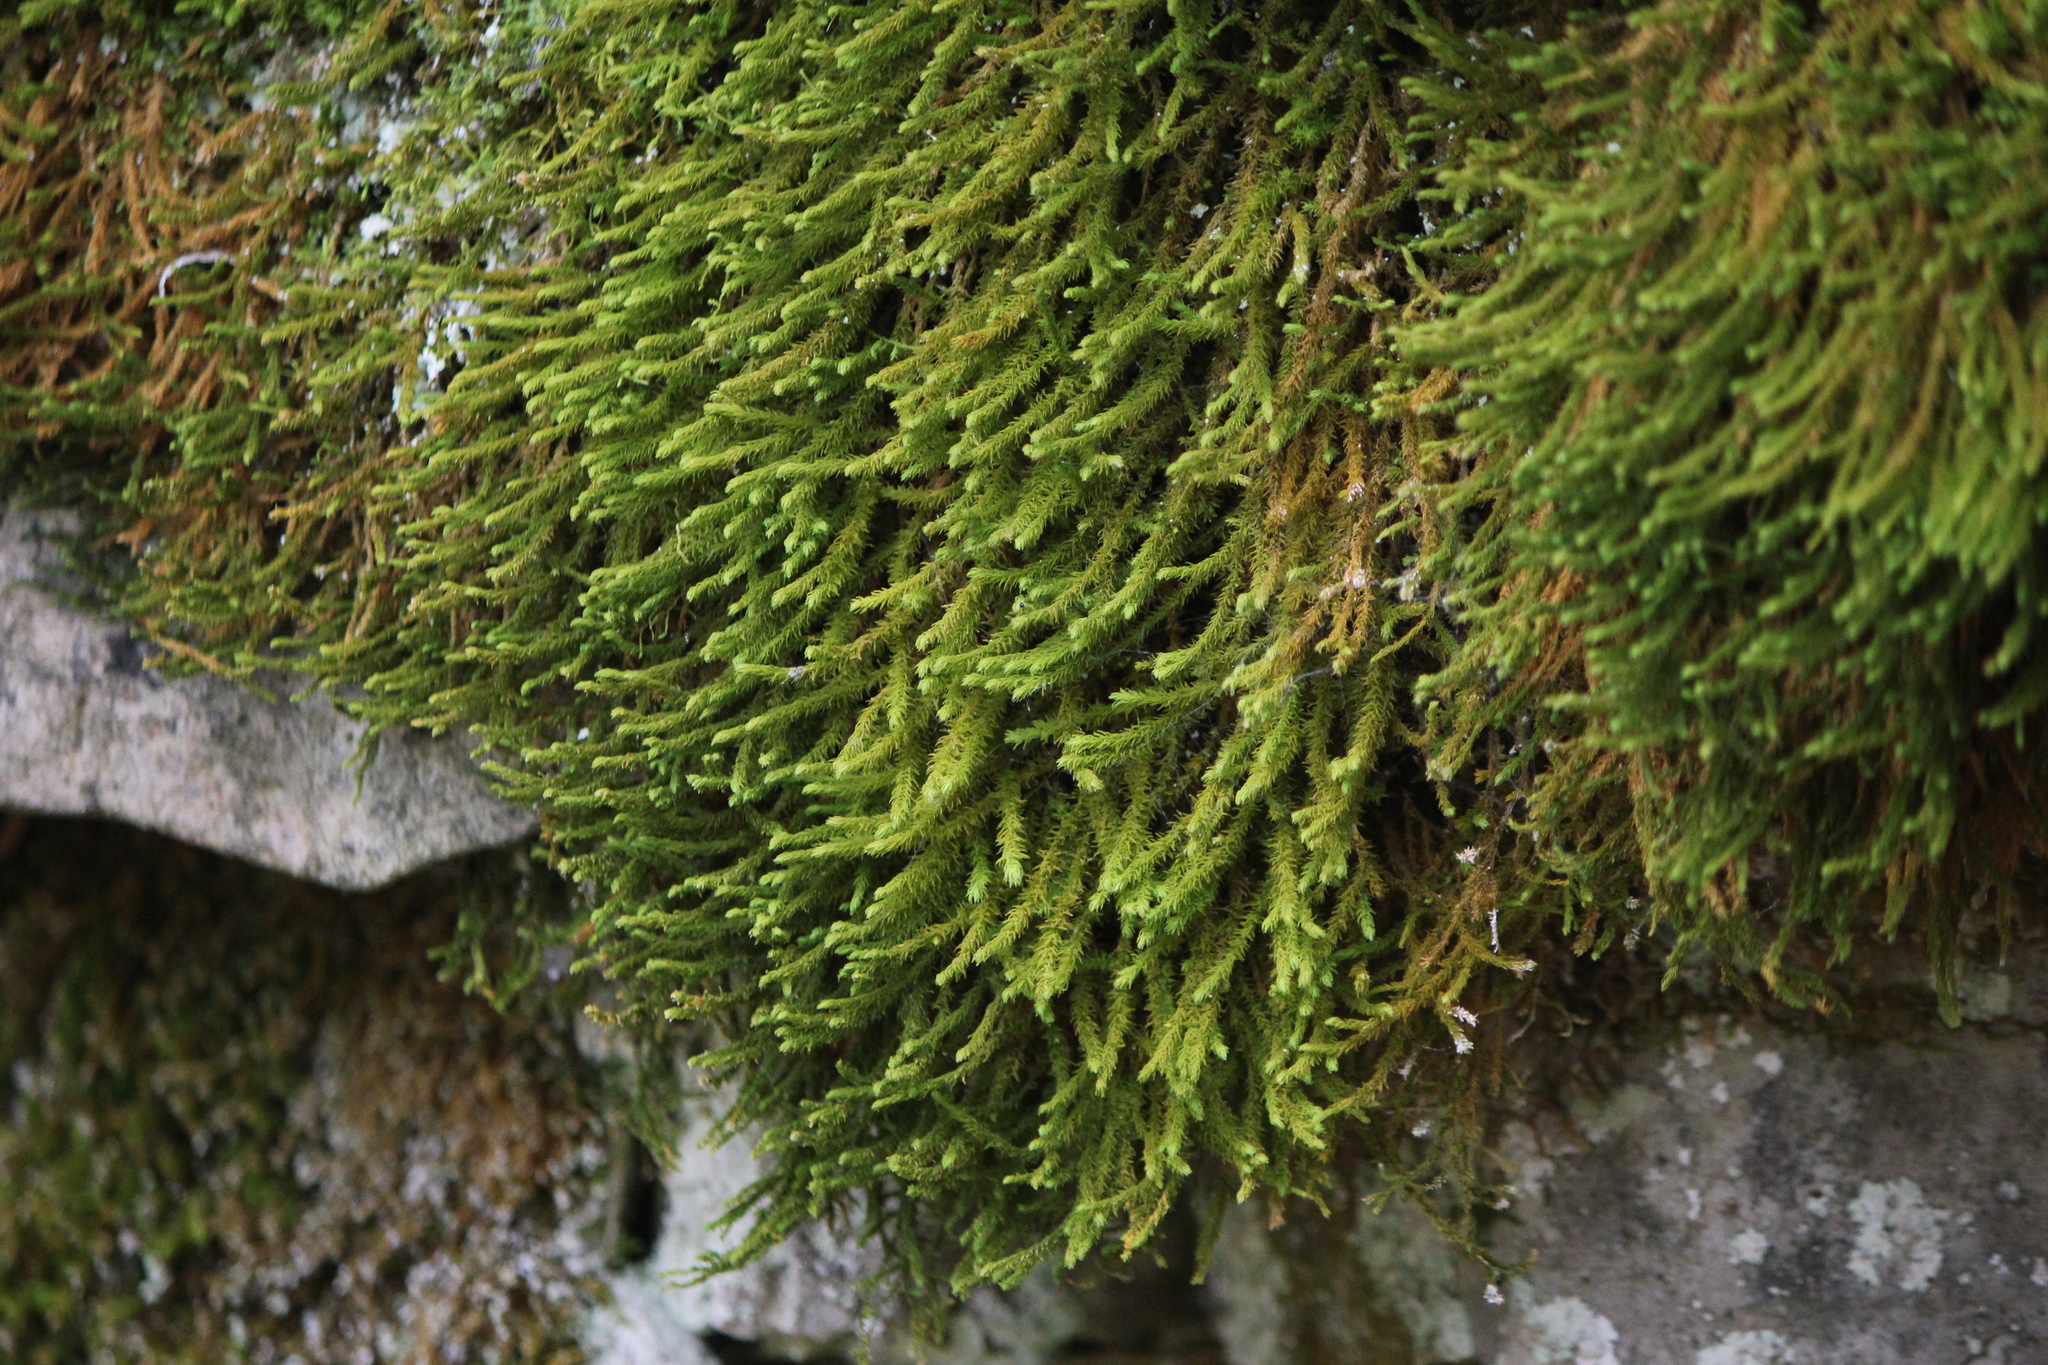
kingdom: Plantae
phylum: Bryophyta
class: Bryopsida
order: Hypnales
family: Anomodontaceae
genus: Anomodon
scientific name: Anomodon viticulosus
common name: Tall anomodon
